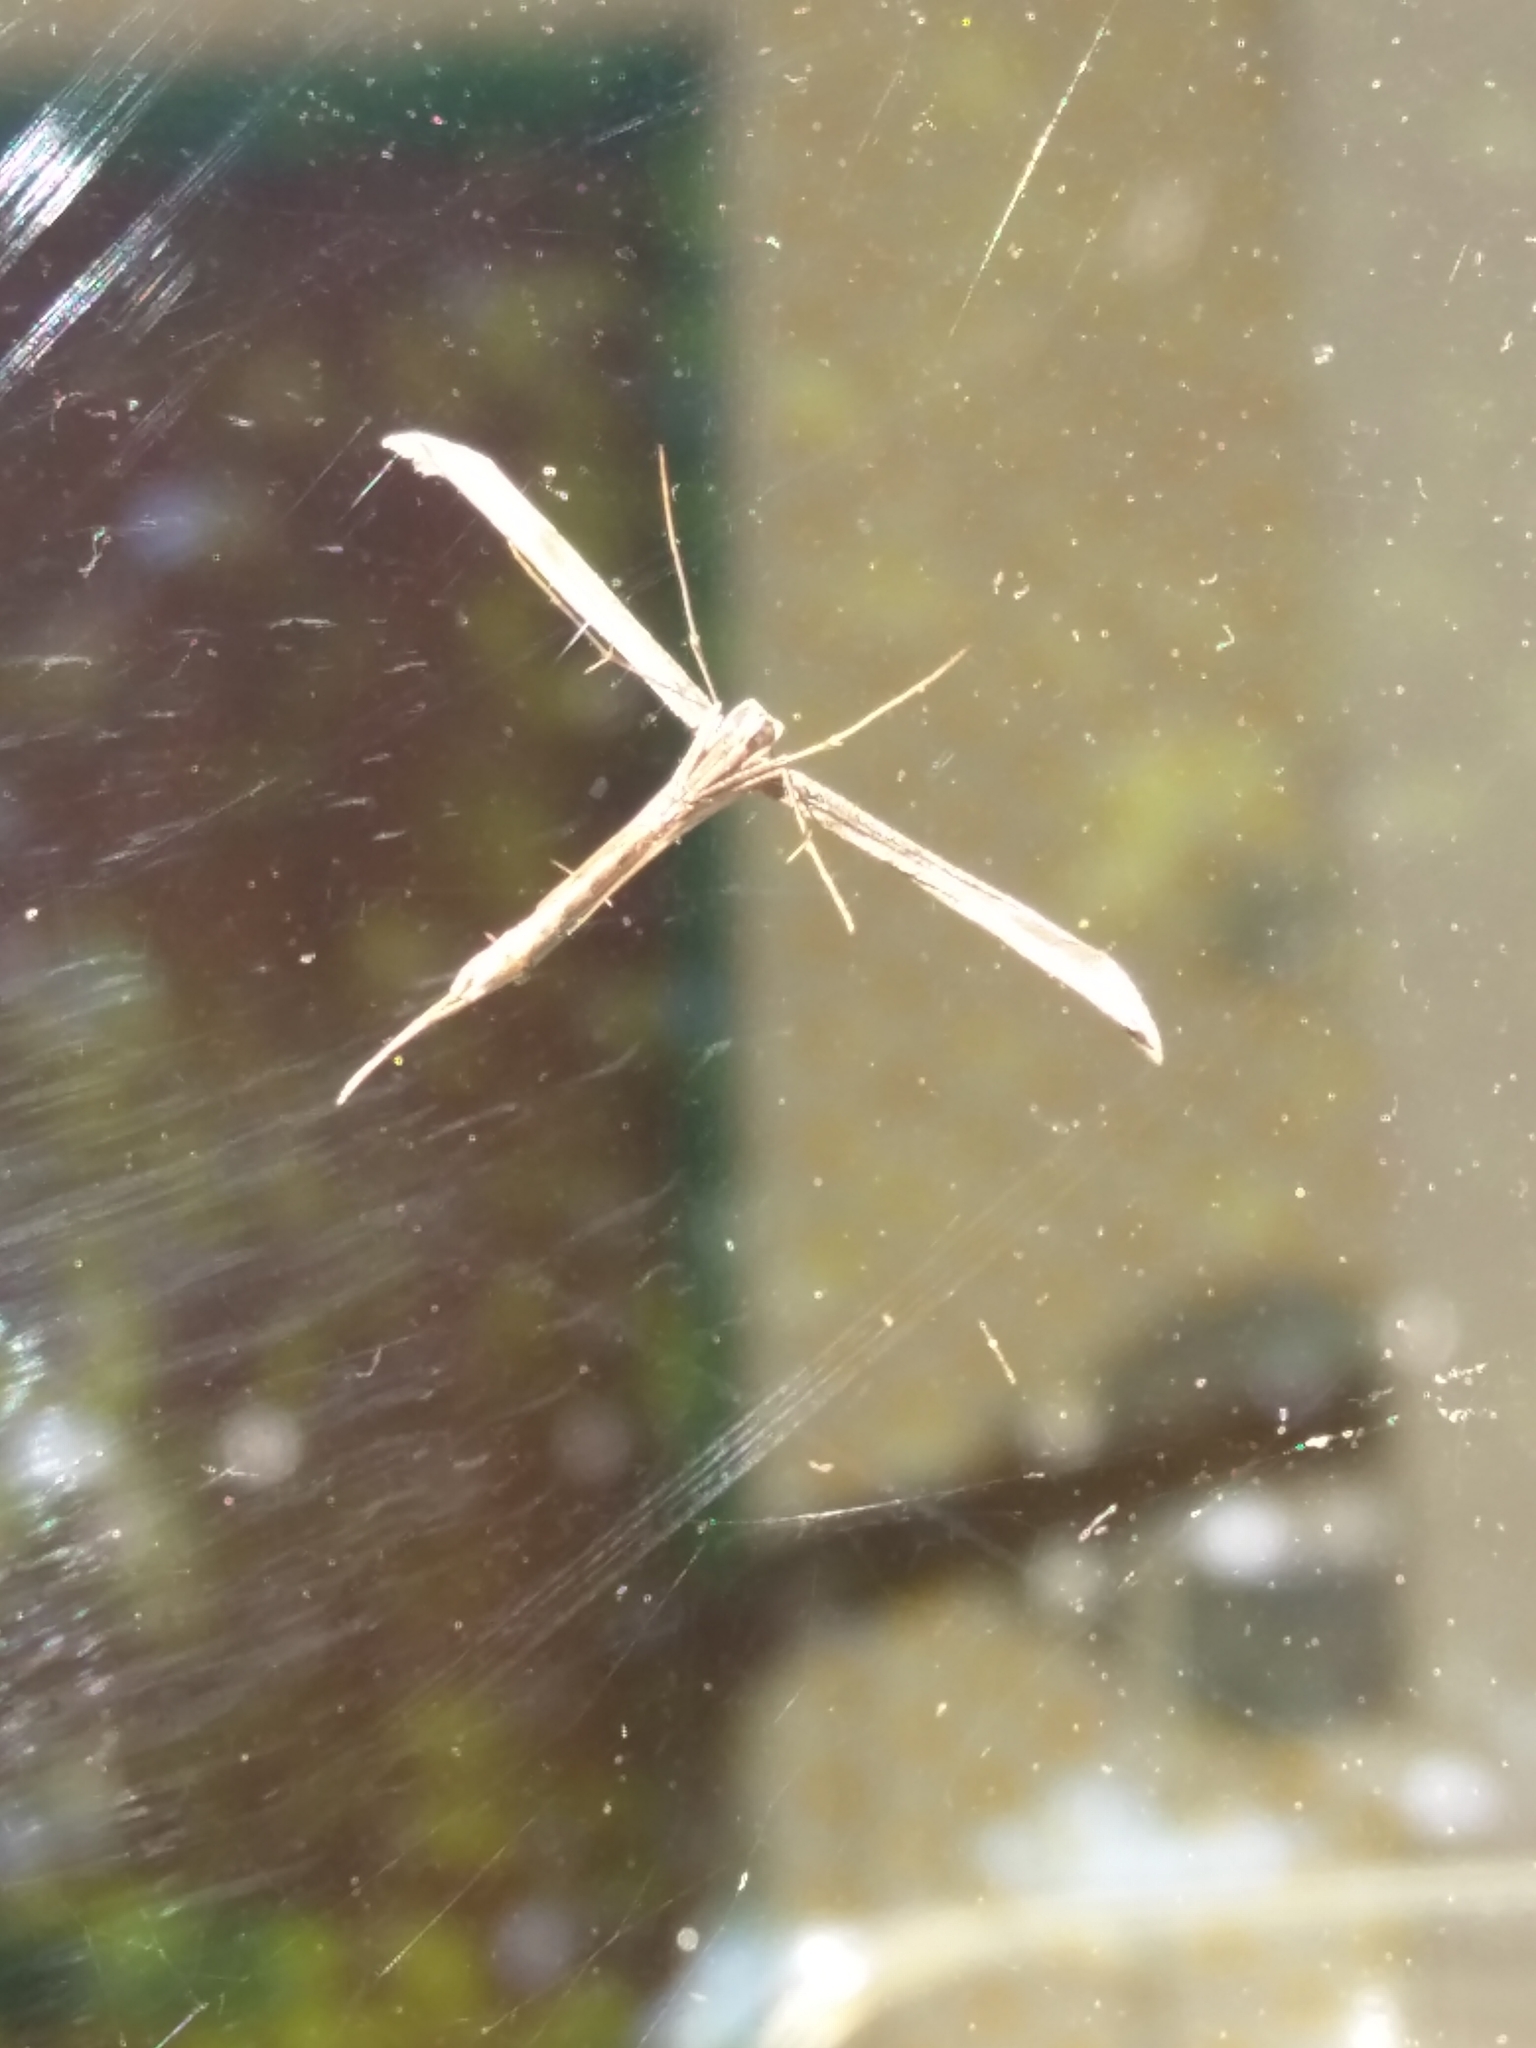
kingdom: Animalia
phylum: Arthropoda
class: Insecta
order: Lepidoptera
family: Pterophoridae
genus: Emmelina
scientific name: Emmelina monodactyla
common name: Common plume
